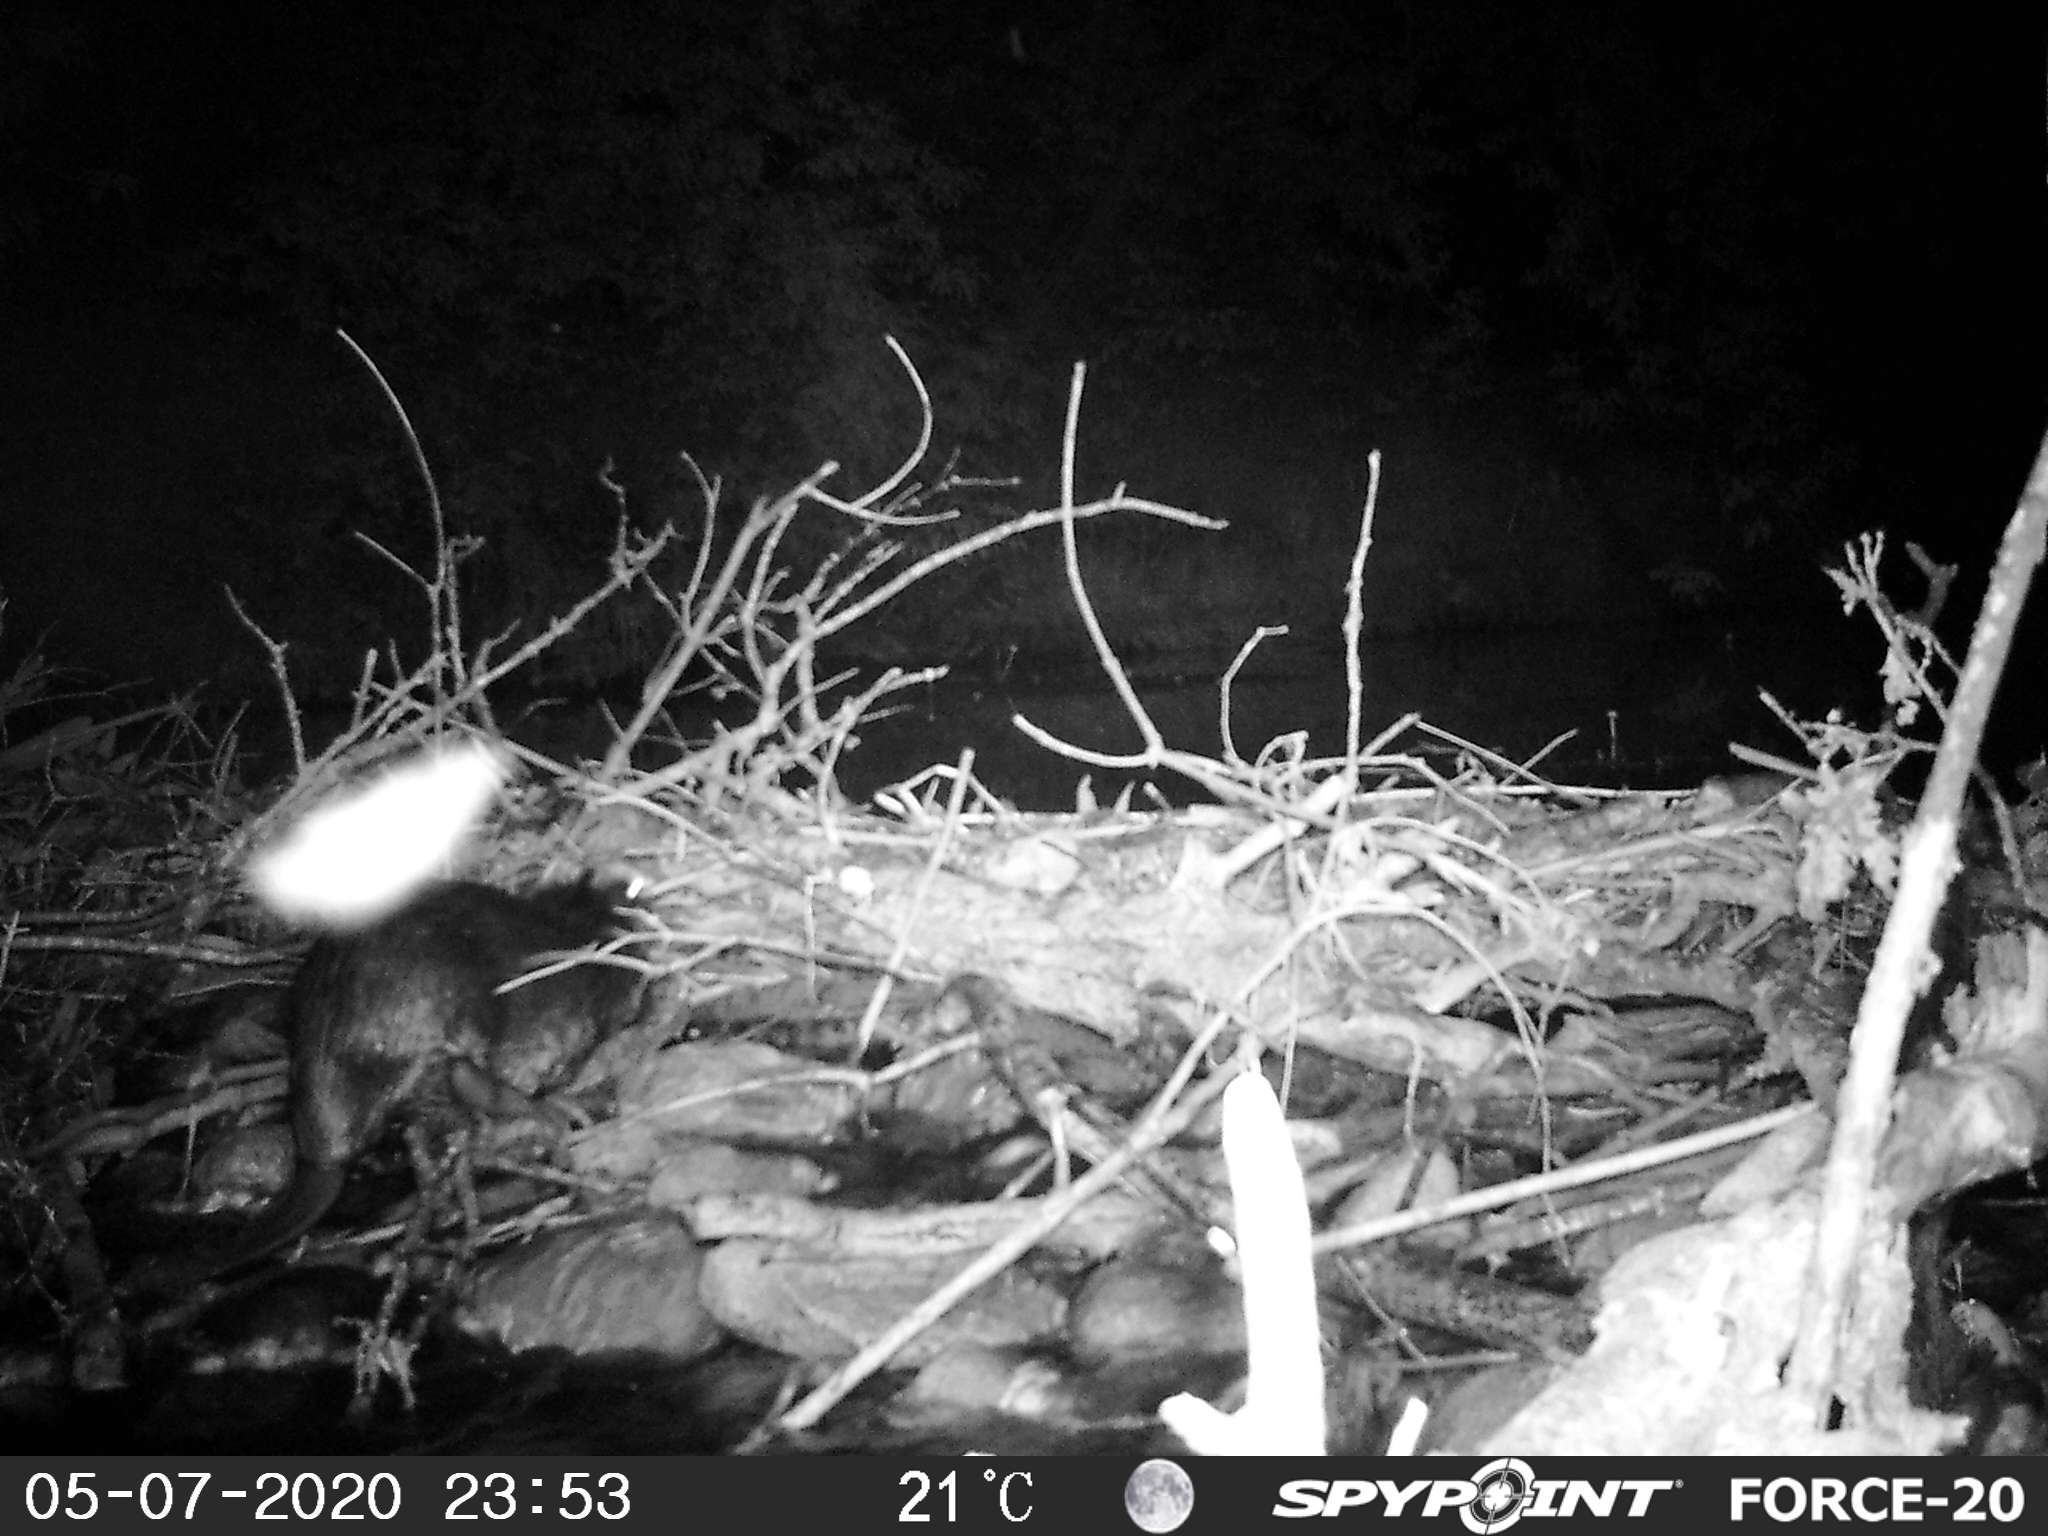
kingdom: Animalia
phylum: Chordata
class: Mammalia
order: Rodentia
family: Castoridae
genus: Castor
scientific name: Castor canadensis
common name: American beaver
